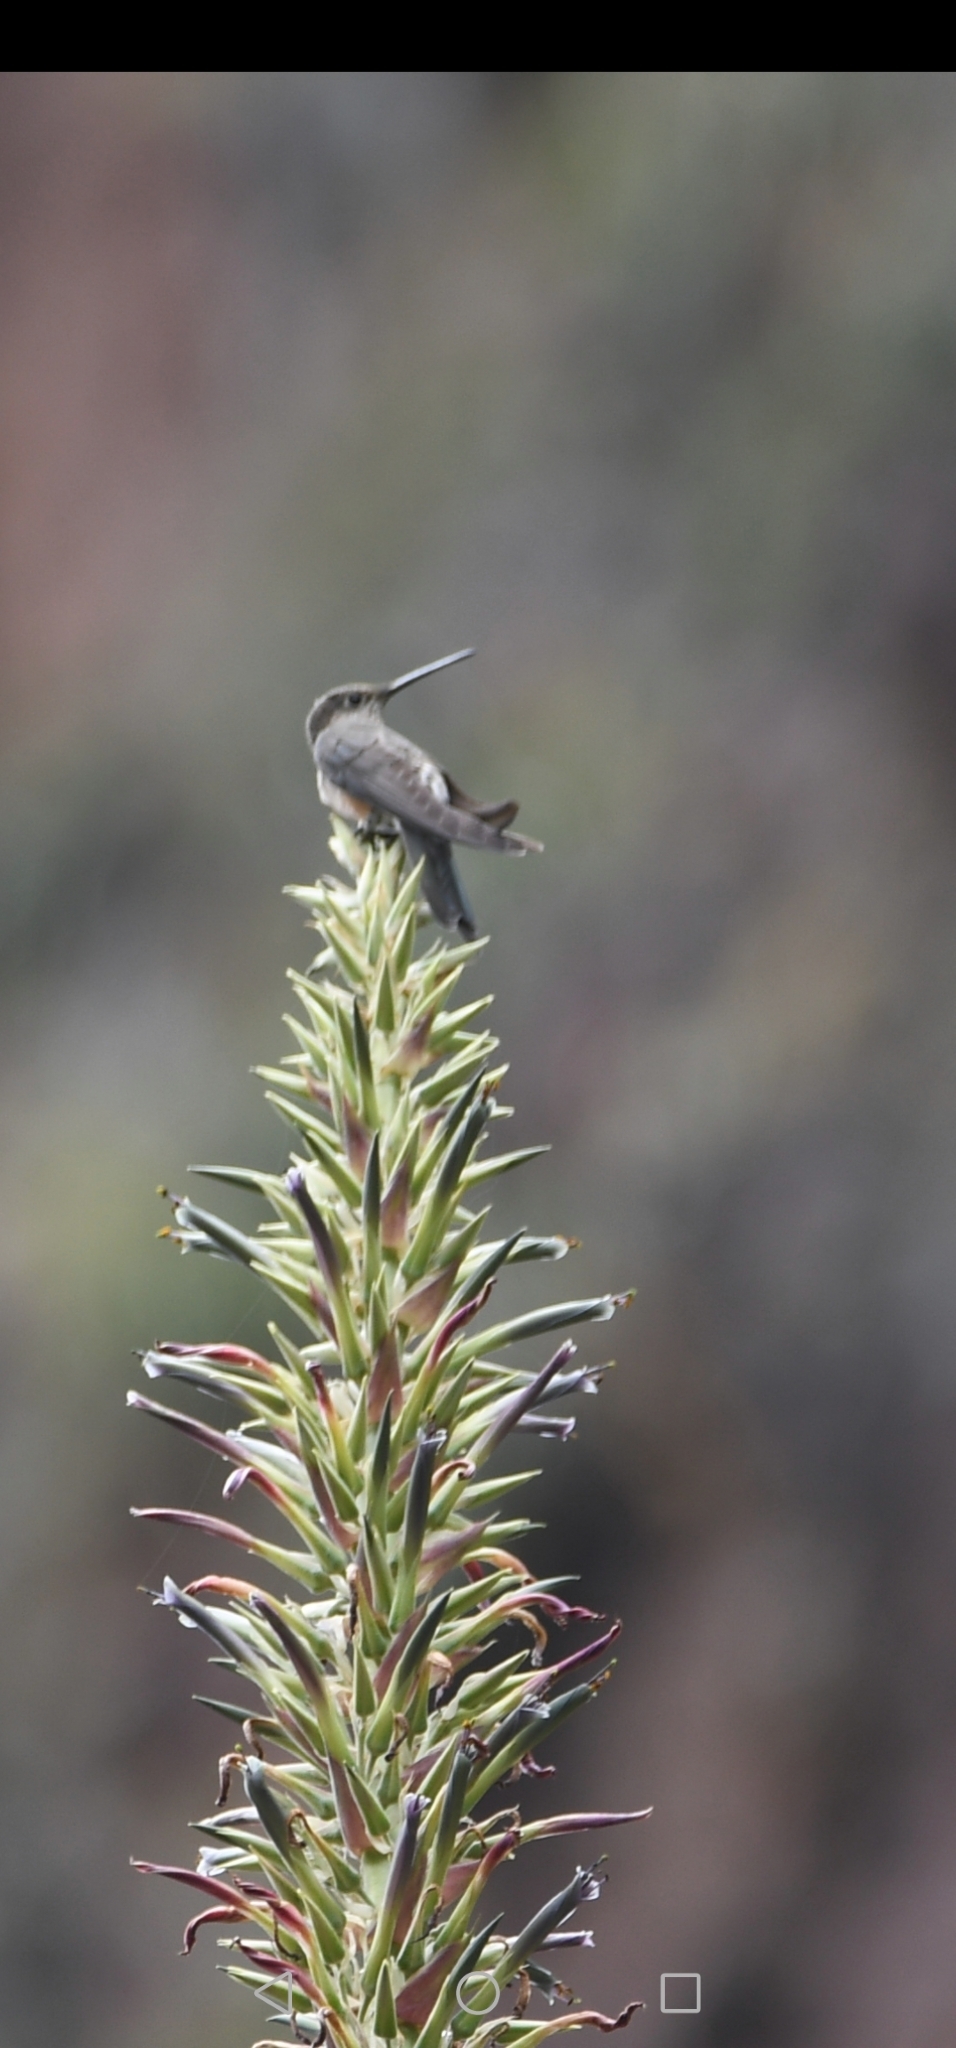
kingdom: Animalia
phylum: Chordata
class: Aves
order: Apodiformes
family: Trochilidae
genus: Patagona
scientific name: Patagona gigas
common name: Giant hummingbird
